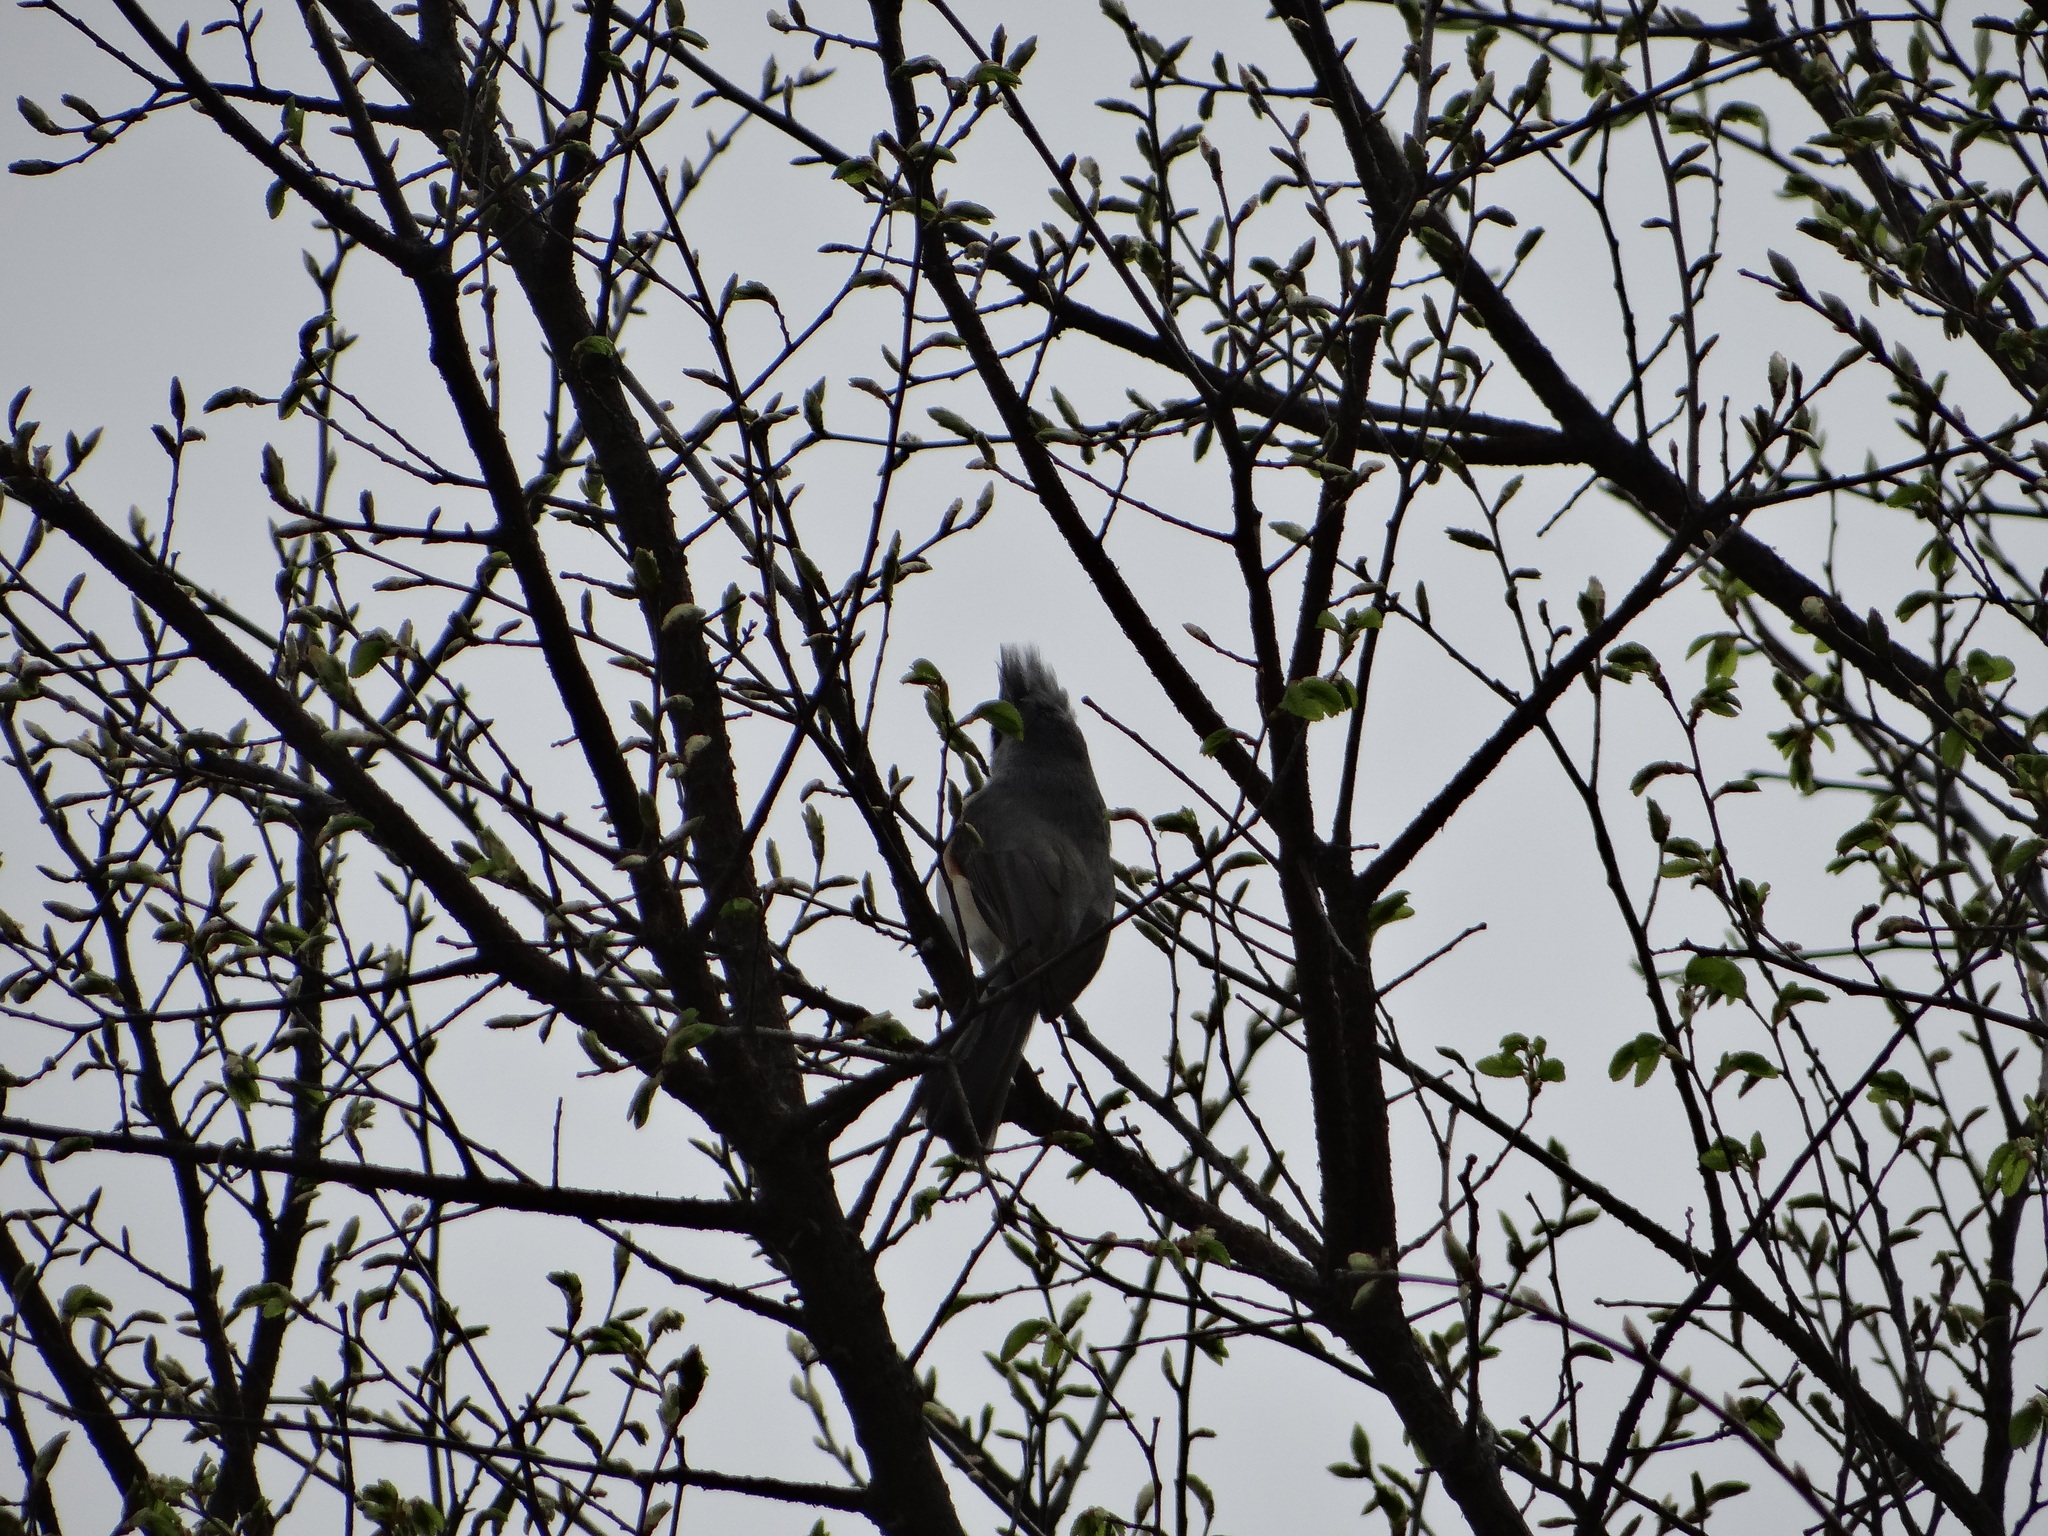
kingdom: Animalia
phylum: Chordata
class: Aves
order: Passeriformes
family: Paridae
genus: Baeolophus
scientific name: Baeolophus bicolor
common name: Tufted titmouse
